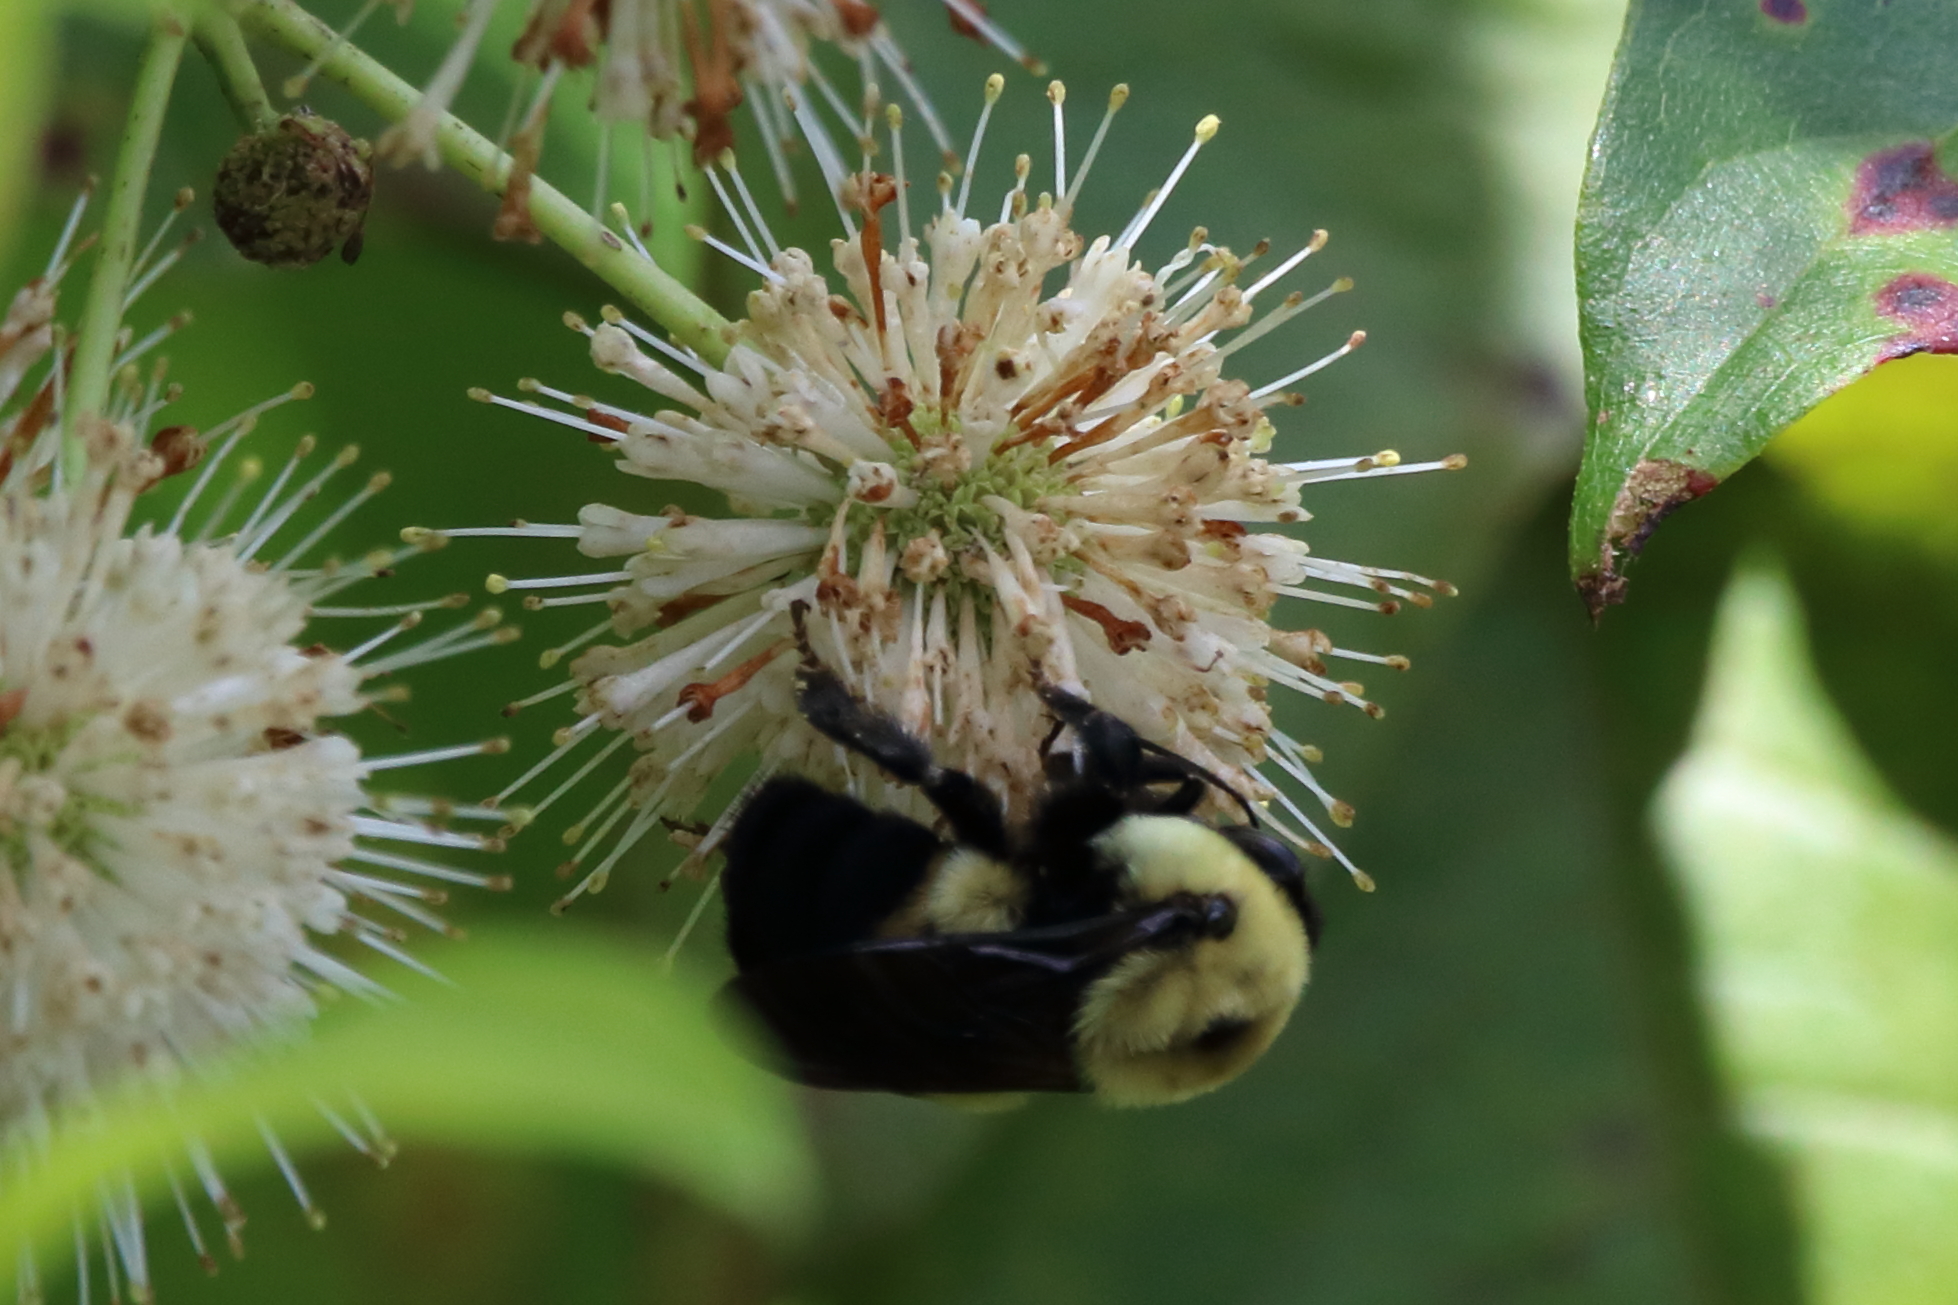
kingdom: Animalia
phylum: Arthropoda
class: Insecta
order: Hymenoptera
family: Apidae
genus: Bombus
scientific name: Bombus griseocollis
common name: Brown-belted bumble bee
